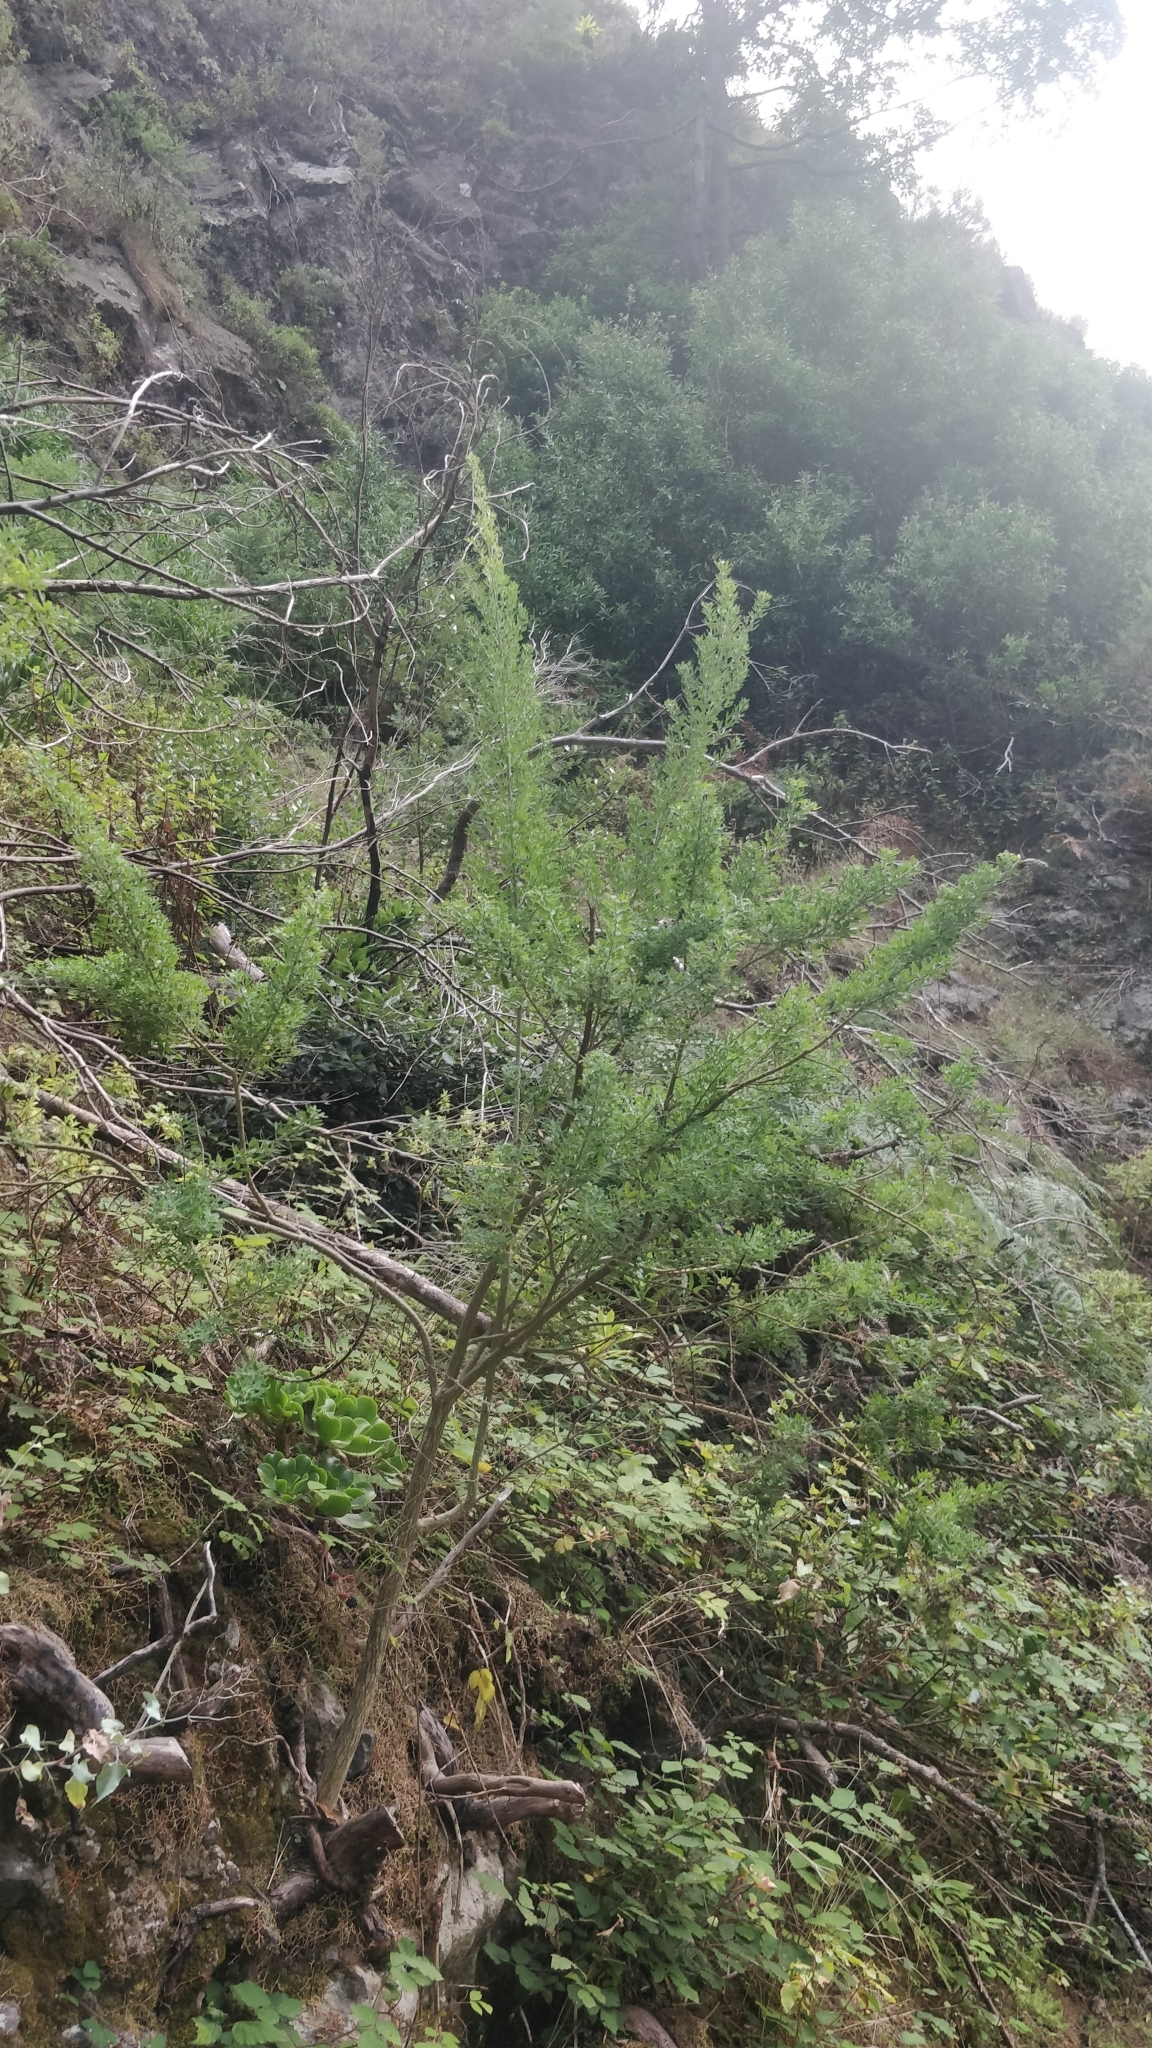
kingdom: Plantae
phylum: Tracheophyta
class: Magnoliopsida
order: Fabales
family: Fabaceae
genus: Genista
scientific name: Genista maderensis
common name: Madeira dyer's greenweed
